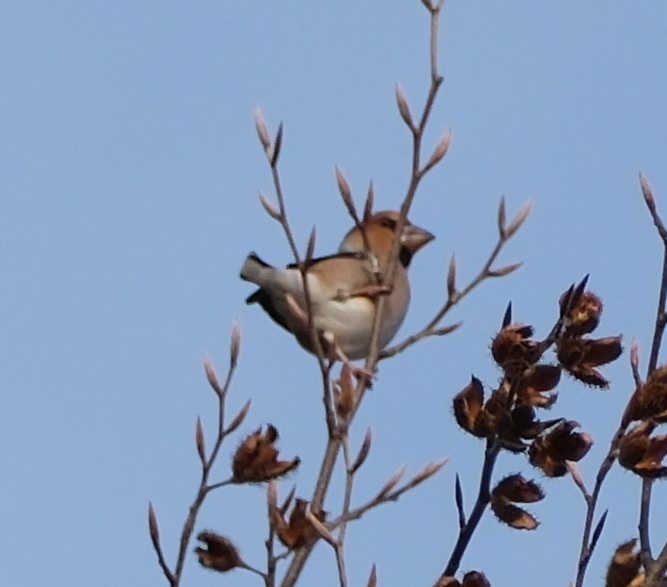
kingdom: Animalia
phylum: Chordata
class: Aves
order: Passeriformes
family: Fringillidae
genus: Coccothraustes
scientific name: Coccothraustes coccothraustes
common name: Hawfinch
